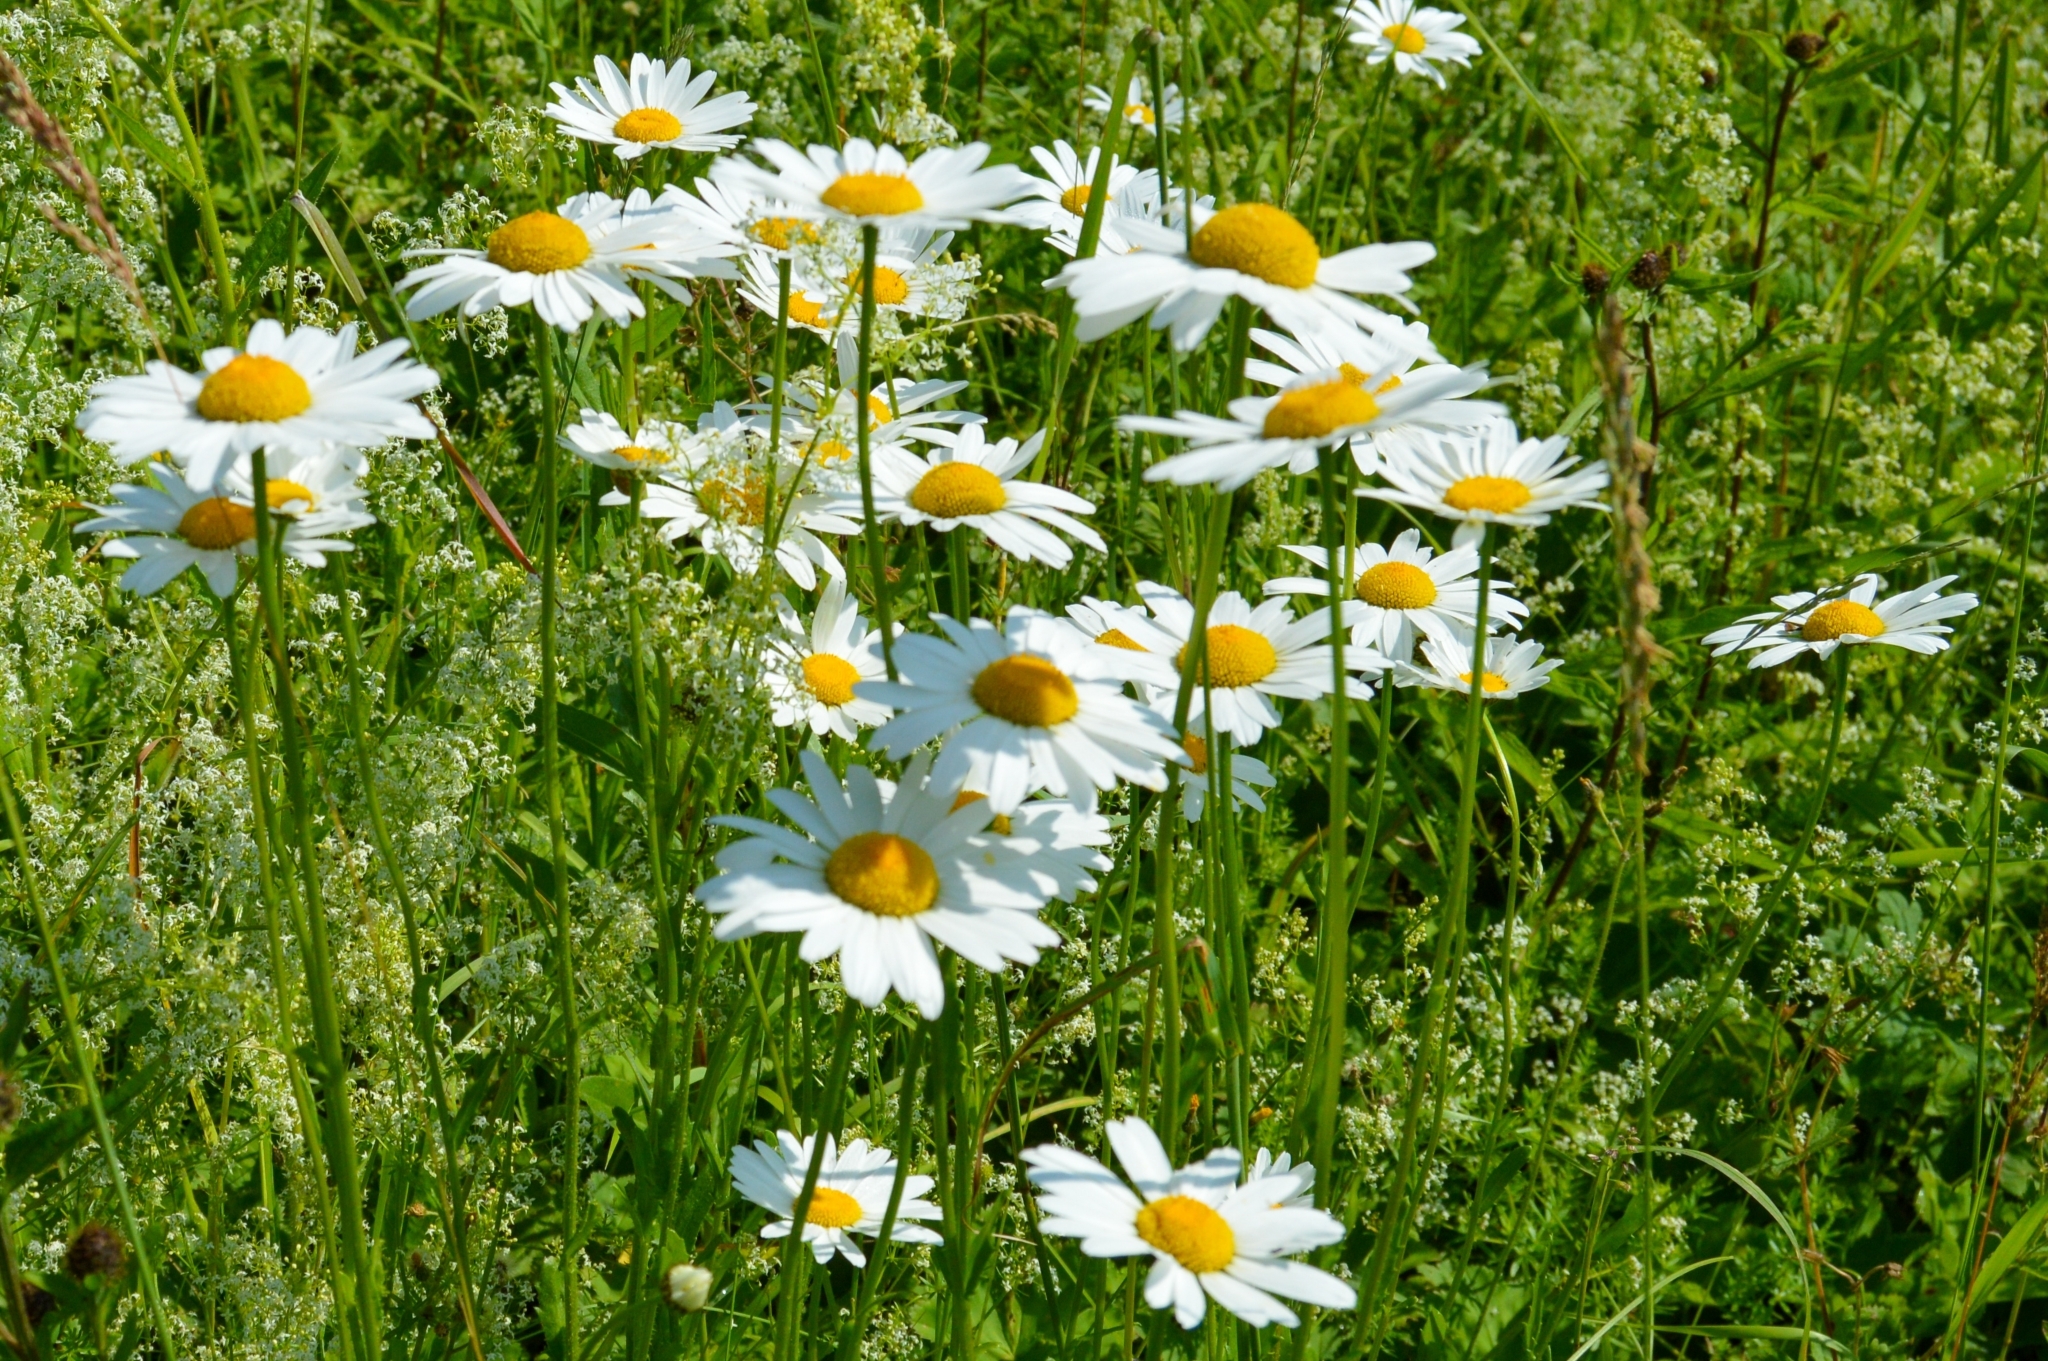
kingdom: Plantae
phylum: Tracheophyta
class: Magnoliopsida
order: Asterales
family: Asteraceae
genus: Leucanthemum
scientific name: Leucanthemum vulgare
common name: Oxeye daisy
